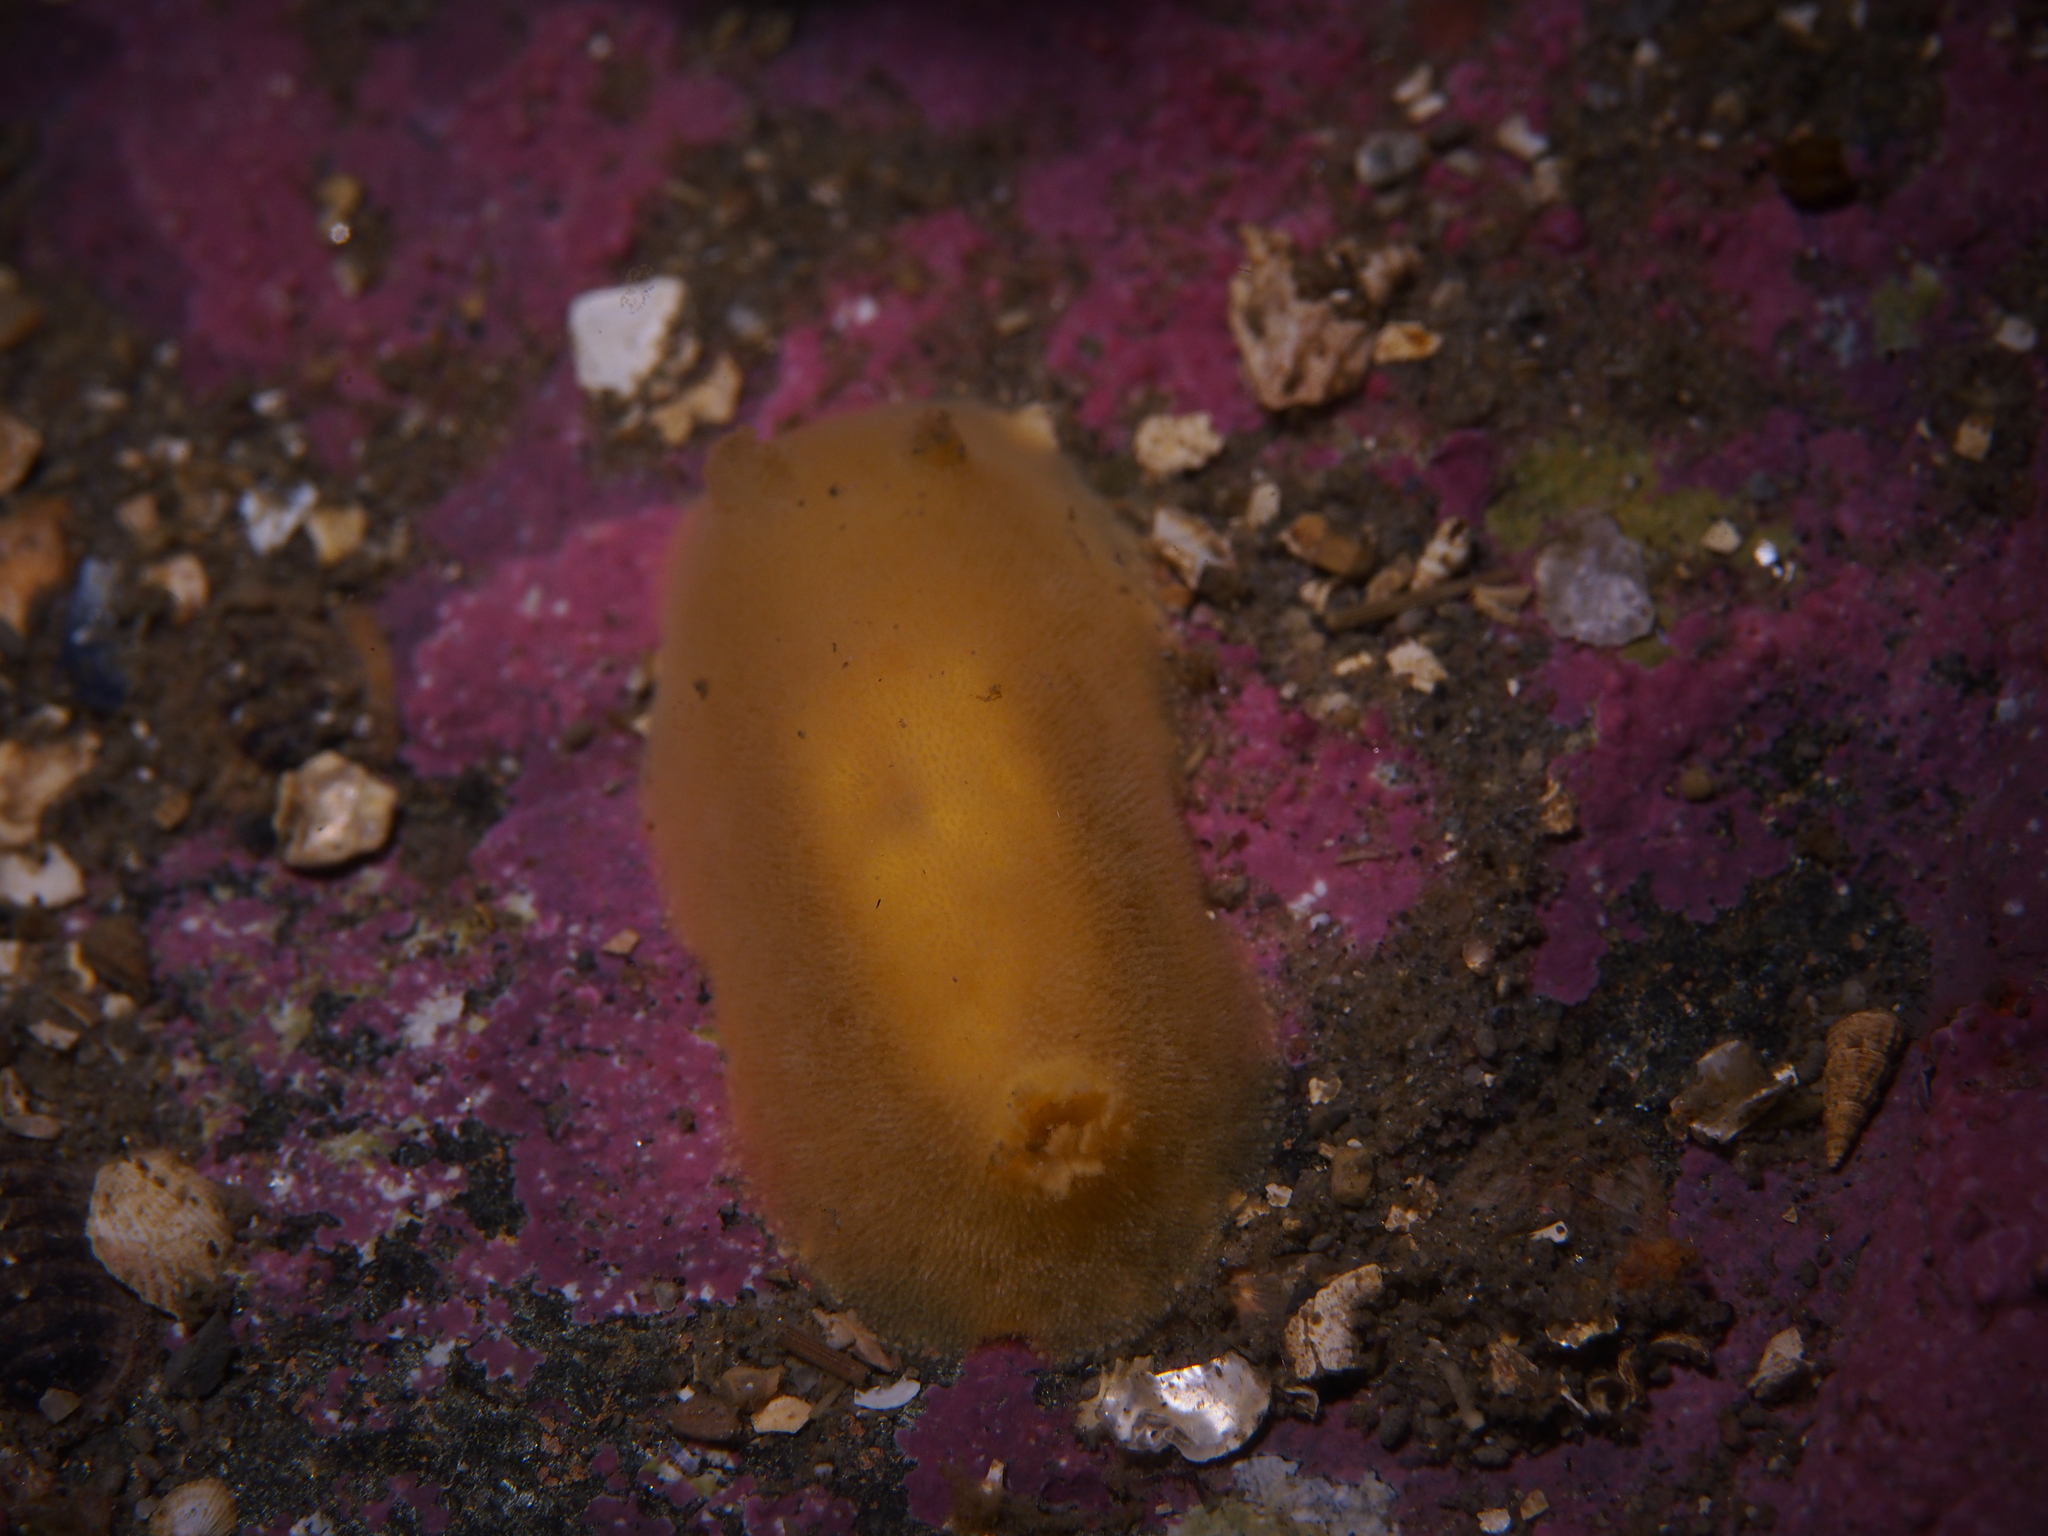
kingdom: Animalia
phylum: Mollusca
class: Gastropoda
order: Nudibranchia
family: Discodorididae
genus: Jorunna
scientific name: Jorunna tomentosa
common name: Grey sea slug
